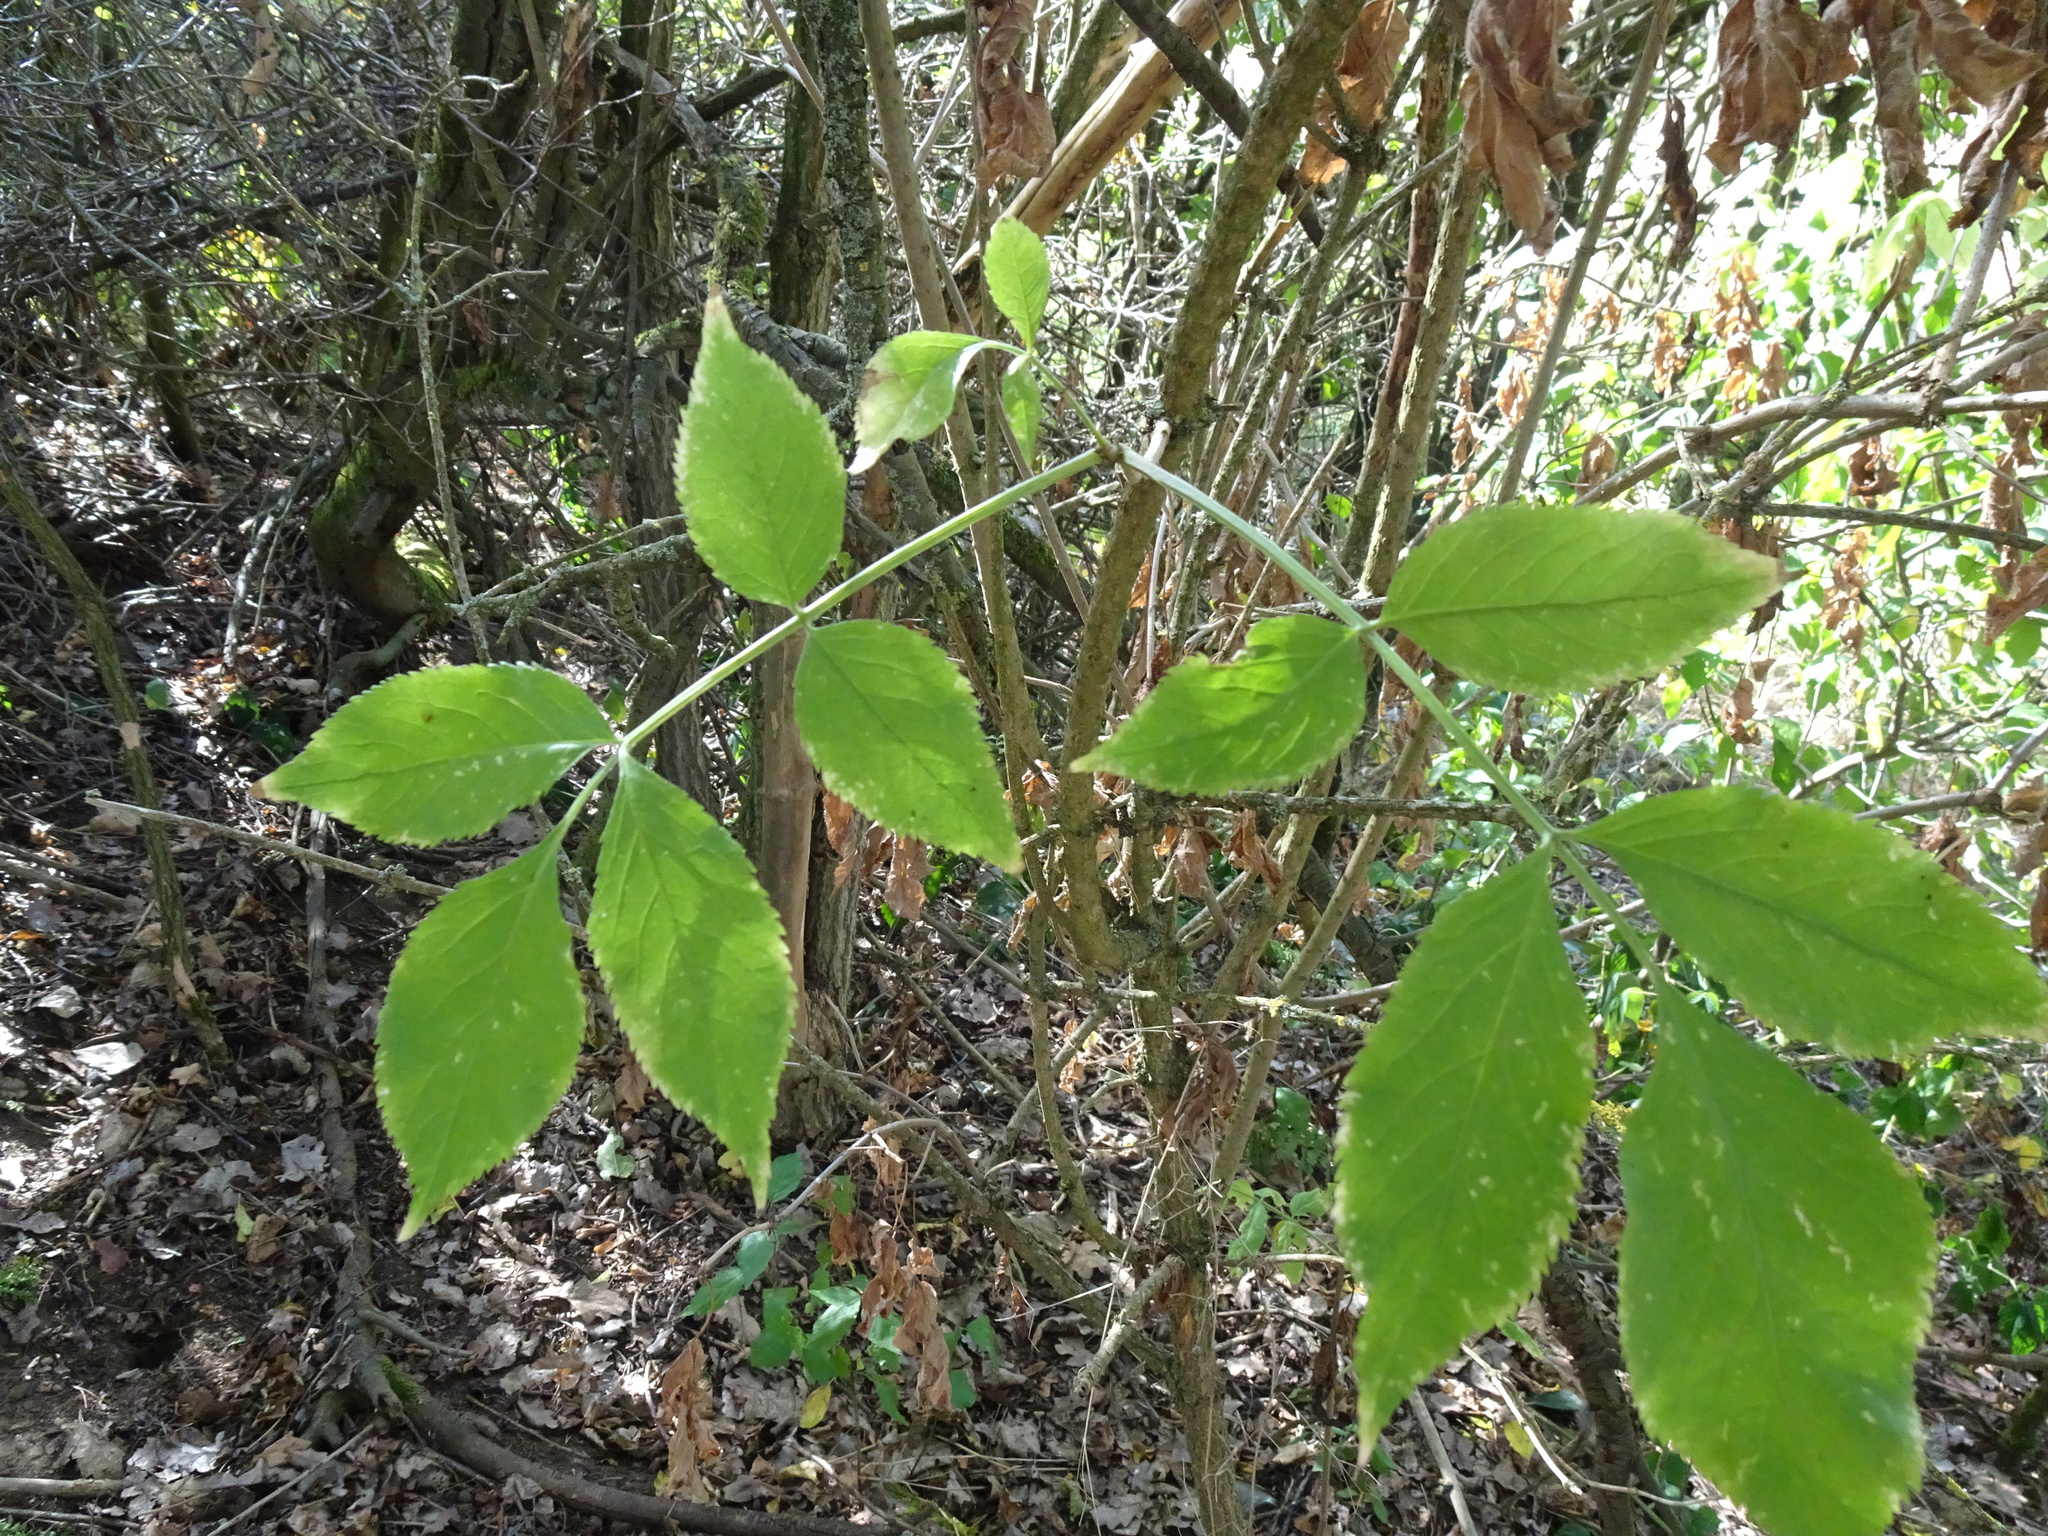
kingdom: Plantae
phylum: Tracheophyta
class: Magnoliopsida
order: Dipsacales
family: Viburnaceae
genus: Sambucus
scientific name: Sambucus nigra
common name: Elder
